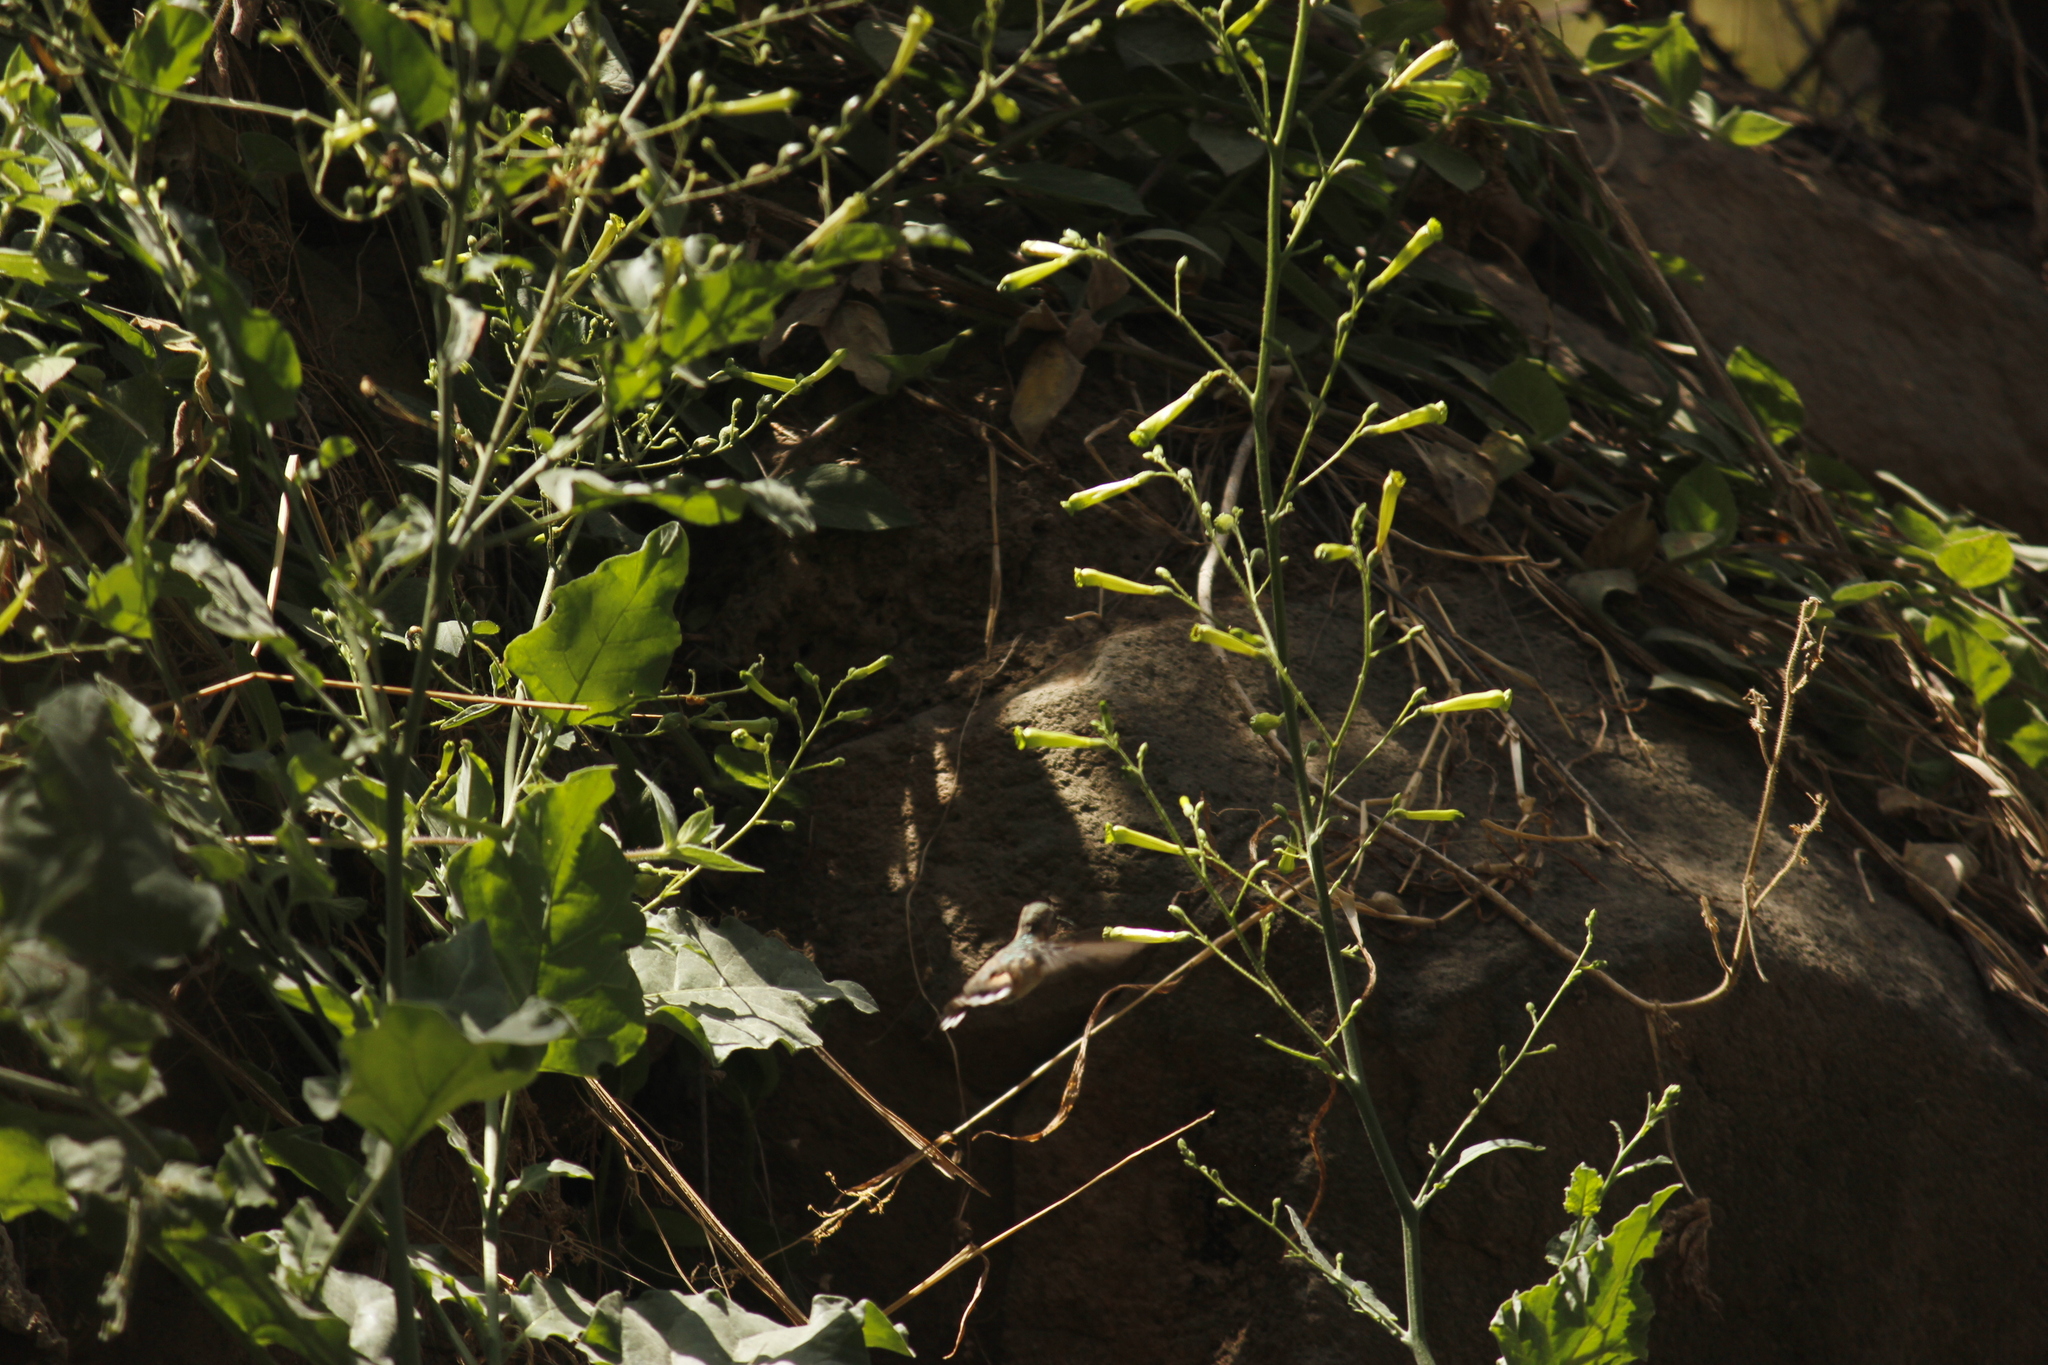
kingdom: Animalia
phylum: Chordata
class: Aves
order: Apodiformes
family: Trochilidae
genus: Myrtis
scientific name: Myrtis fanny
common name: Purple-collared woodstar
